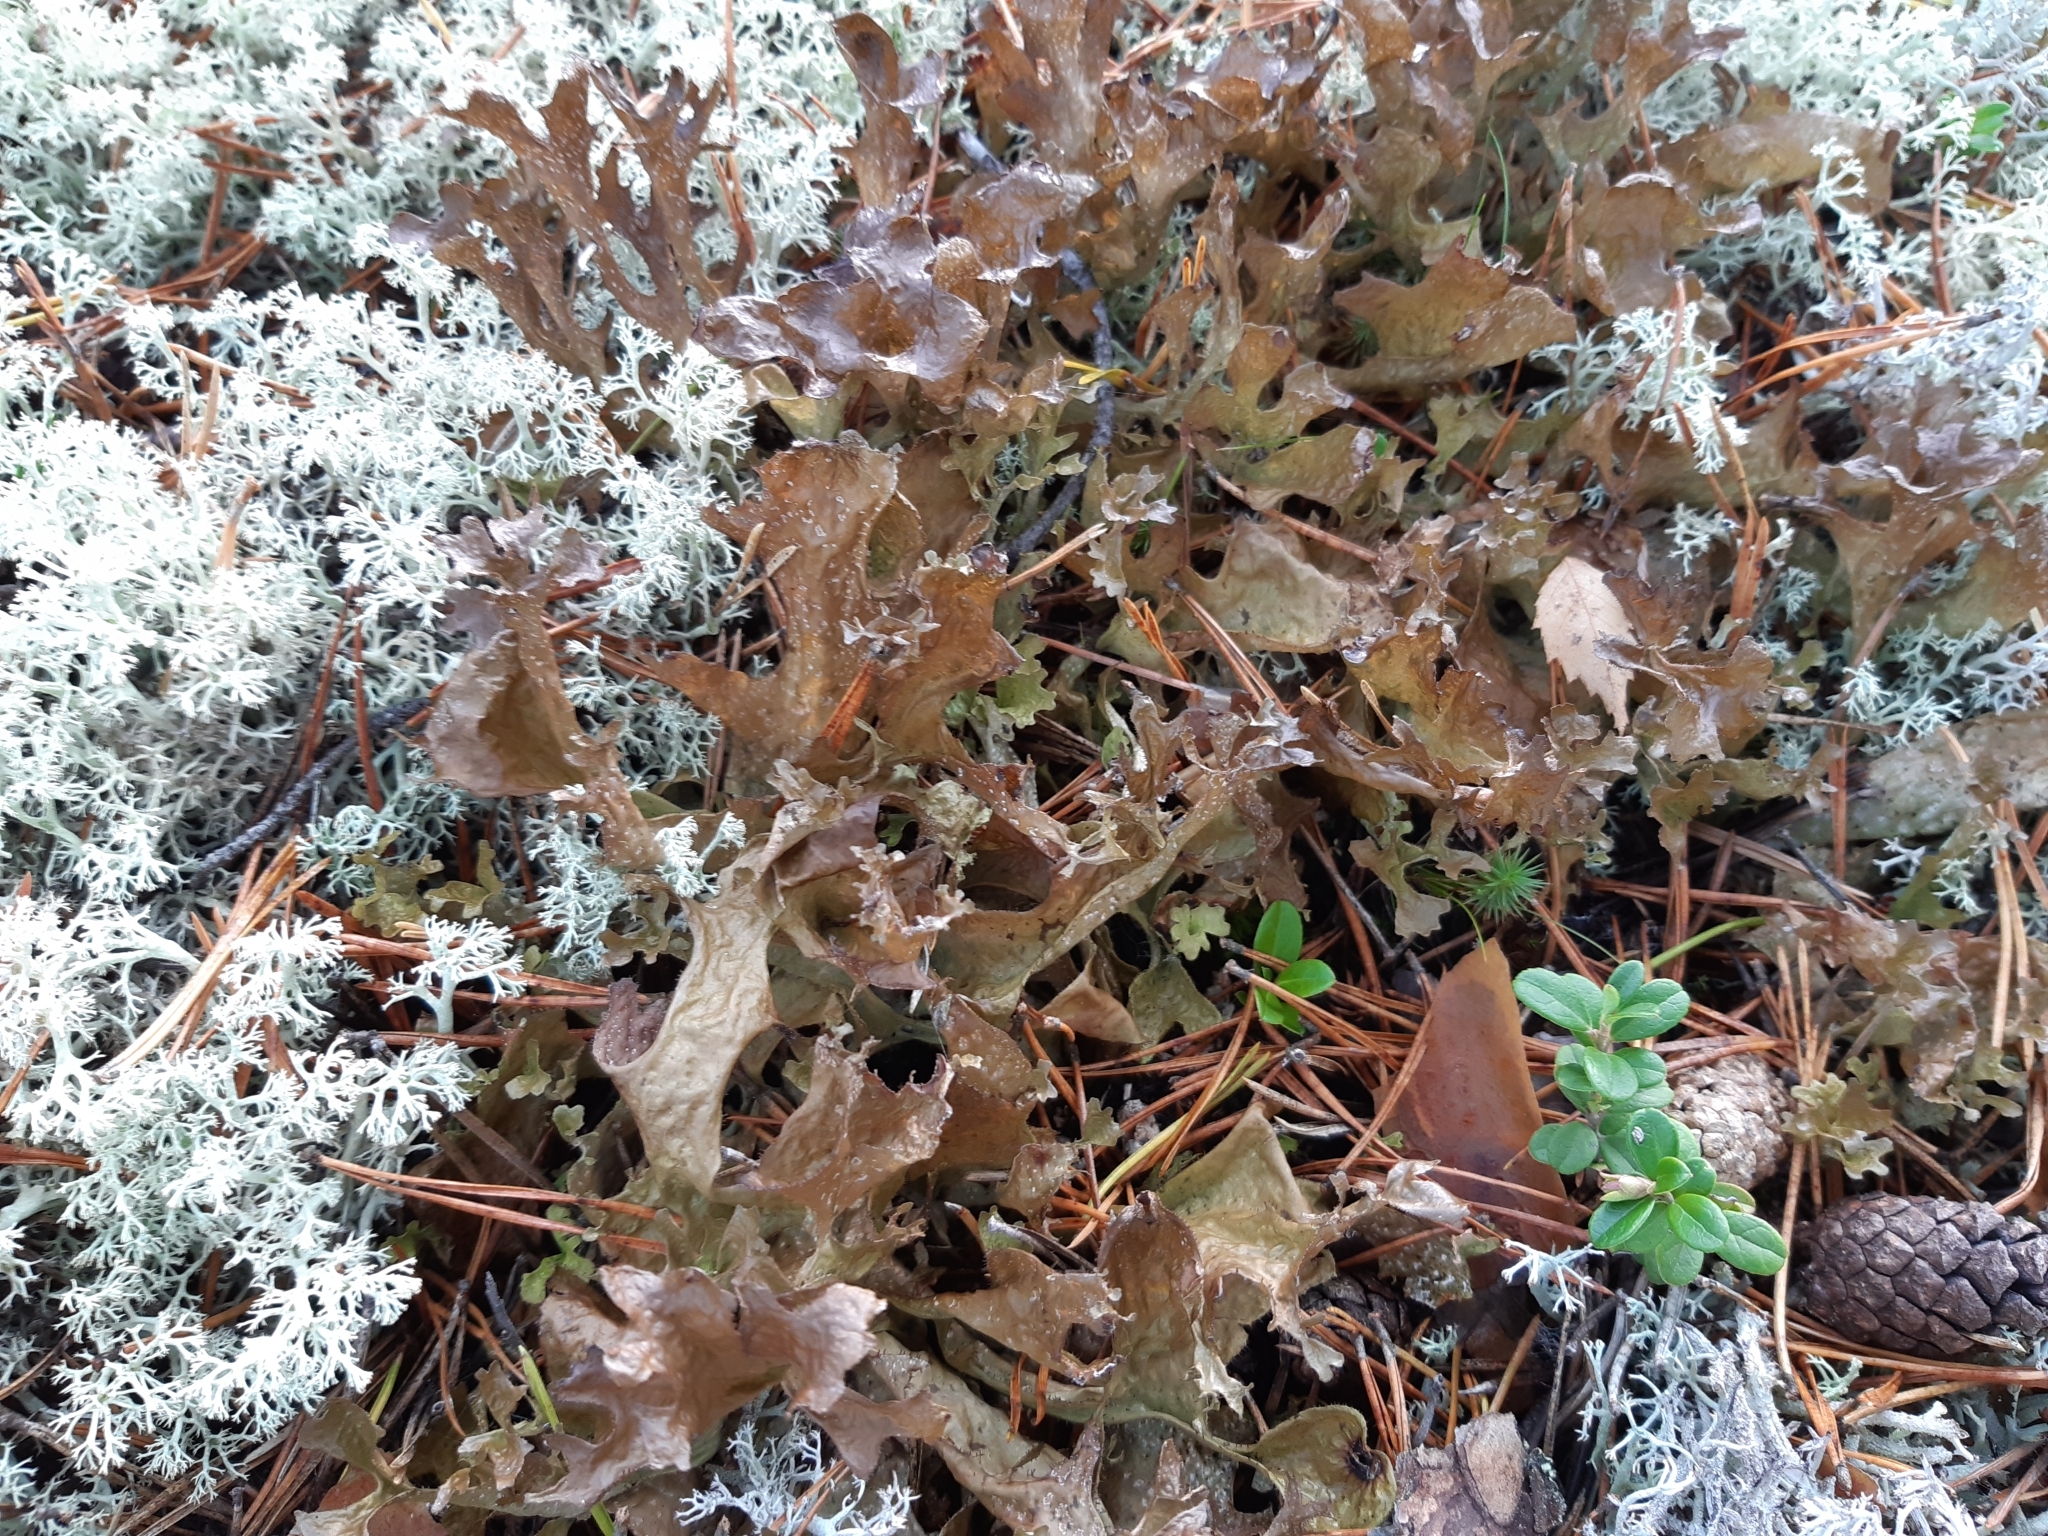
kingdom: Fungi
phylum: Ascomycota
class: Lecanoromycetes
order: Lecanorales
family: Parmeliaceae
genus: Cetraria
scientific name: Cetraria islandica
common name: Iceland lichen
